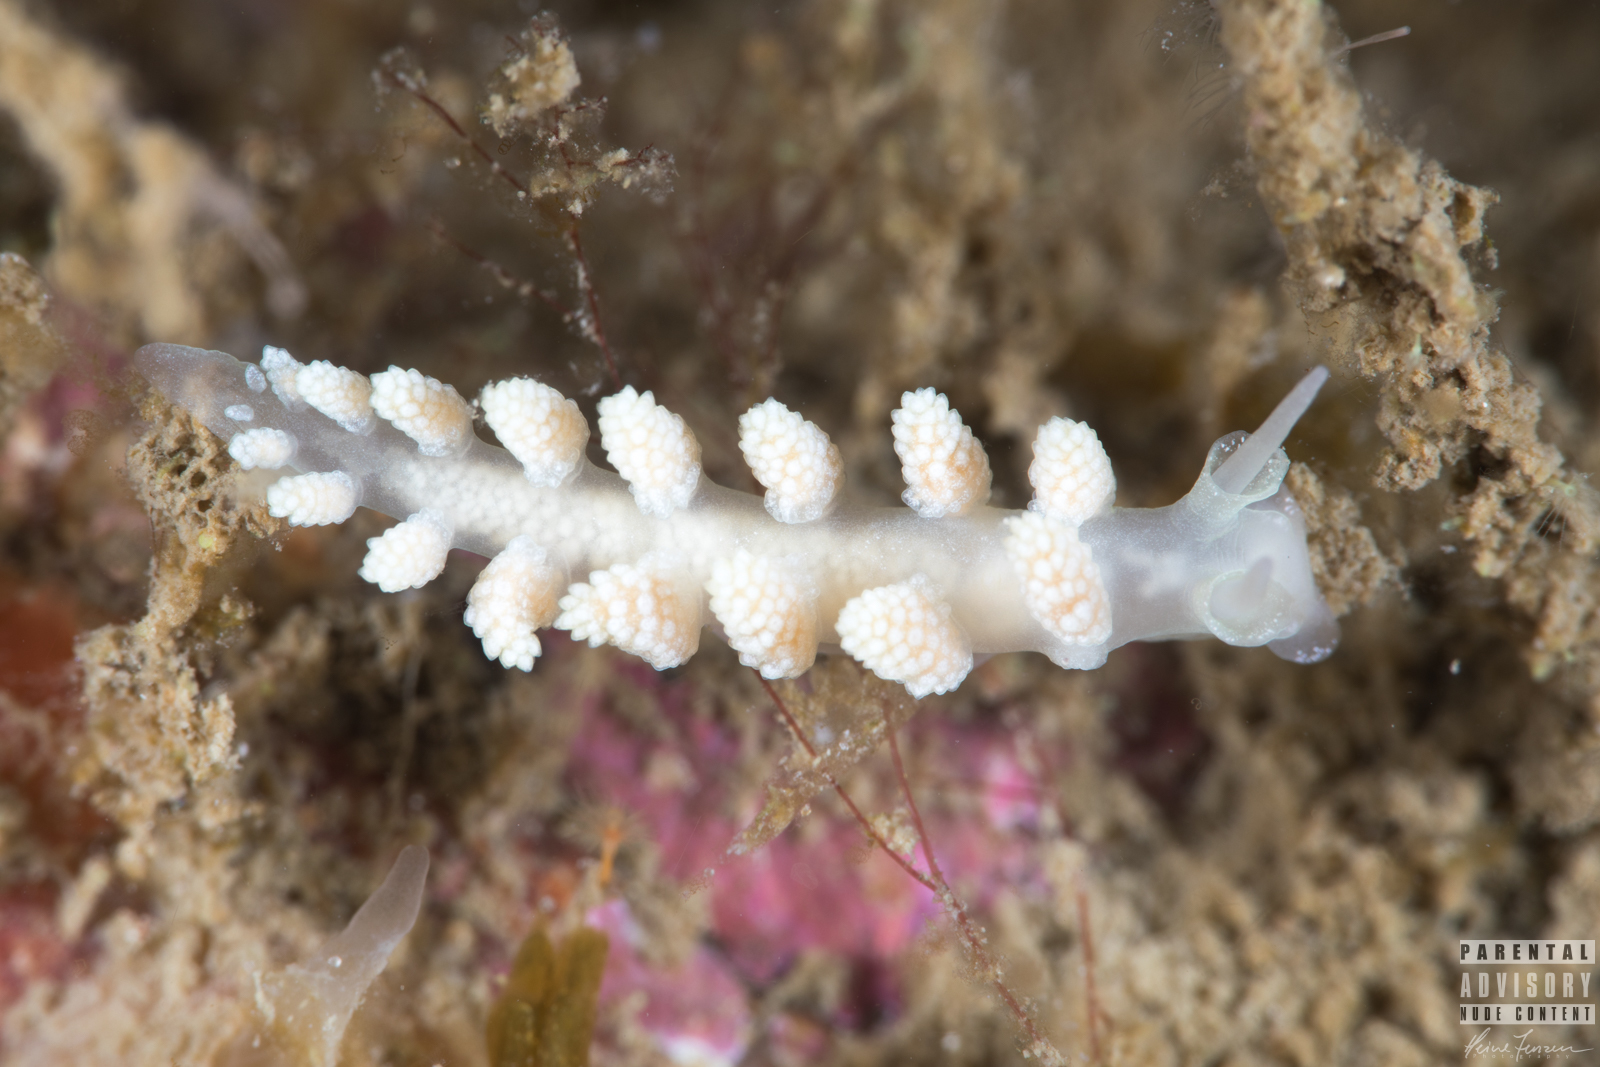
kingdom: Animalia
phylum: Mollusca
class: Gastropoda
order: Nudibranchia
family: Dotidae
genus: Doto
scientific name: Doto fragilis
